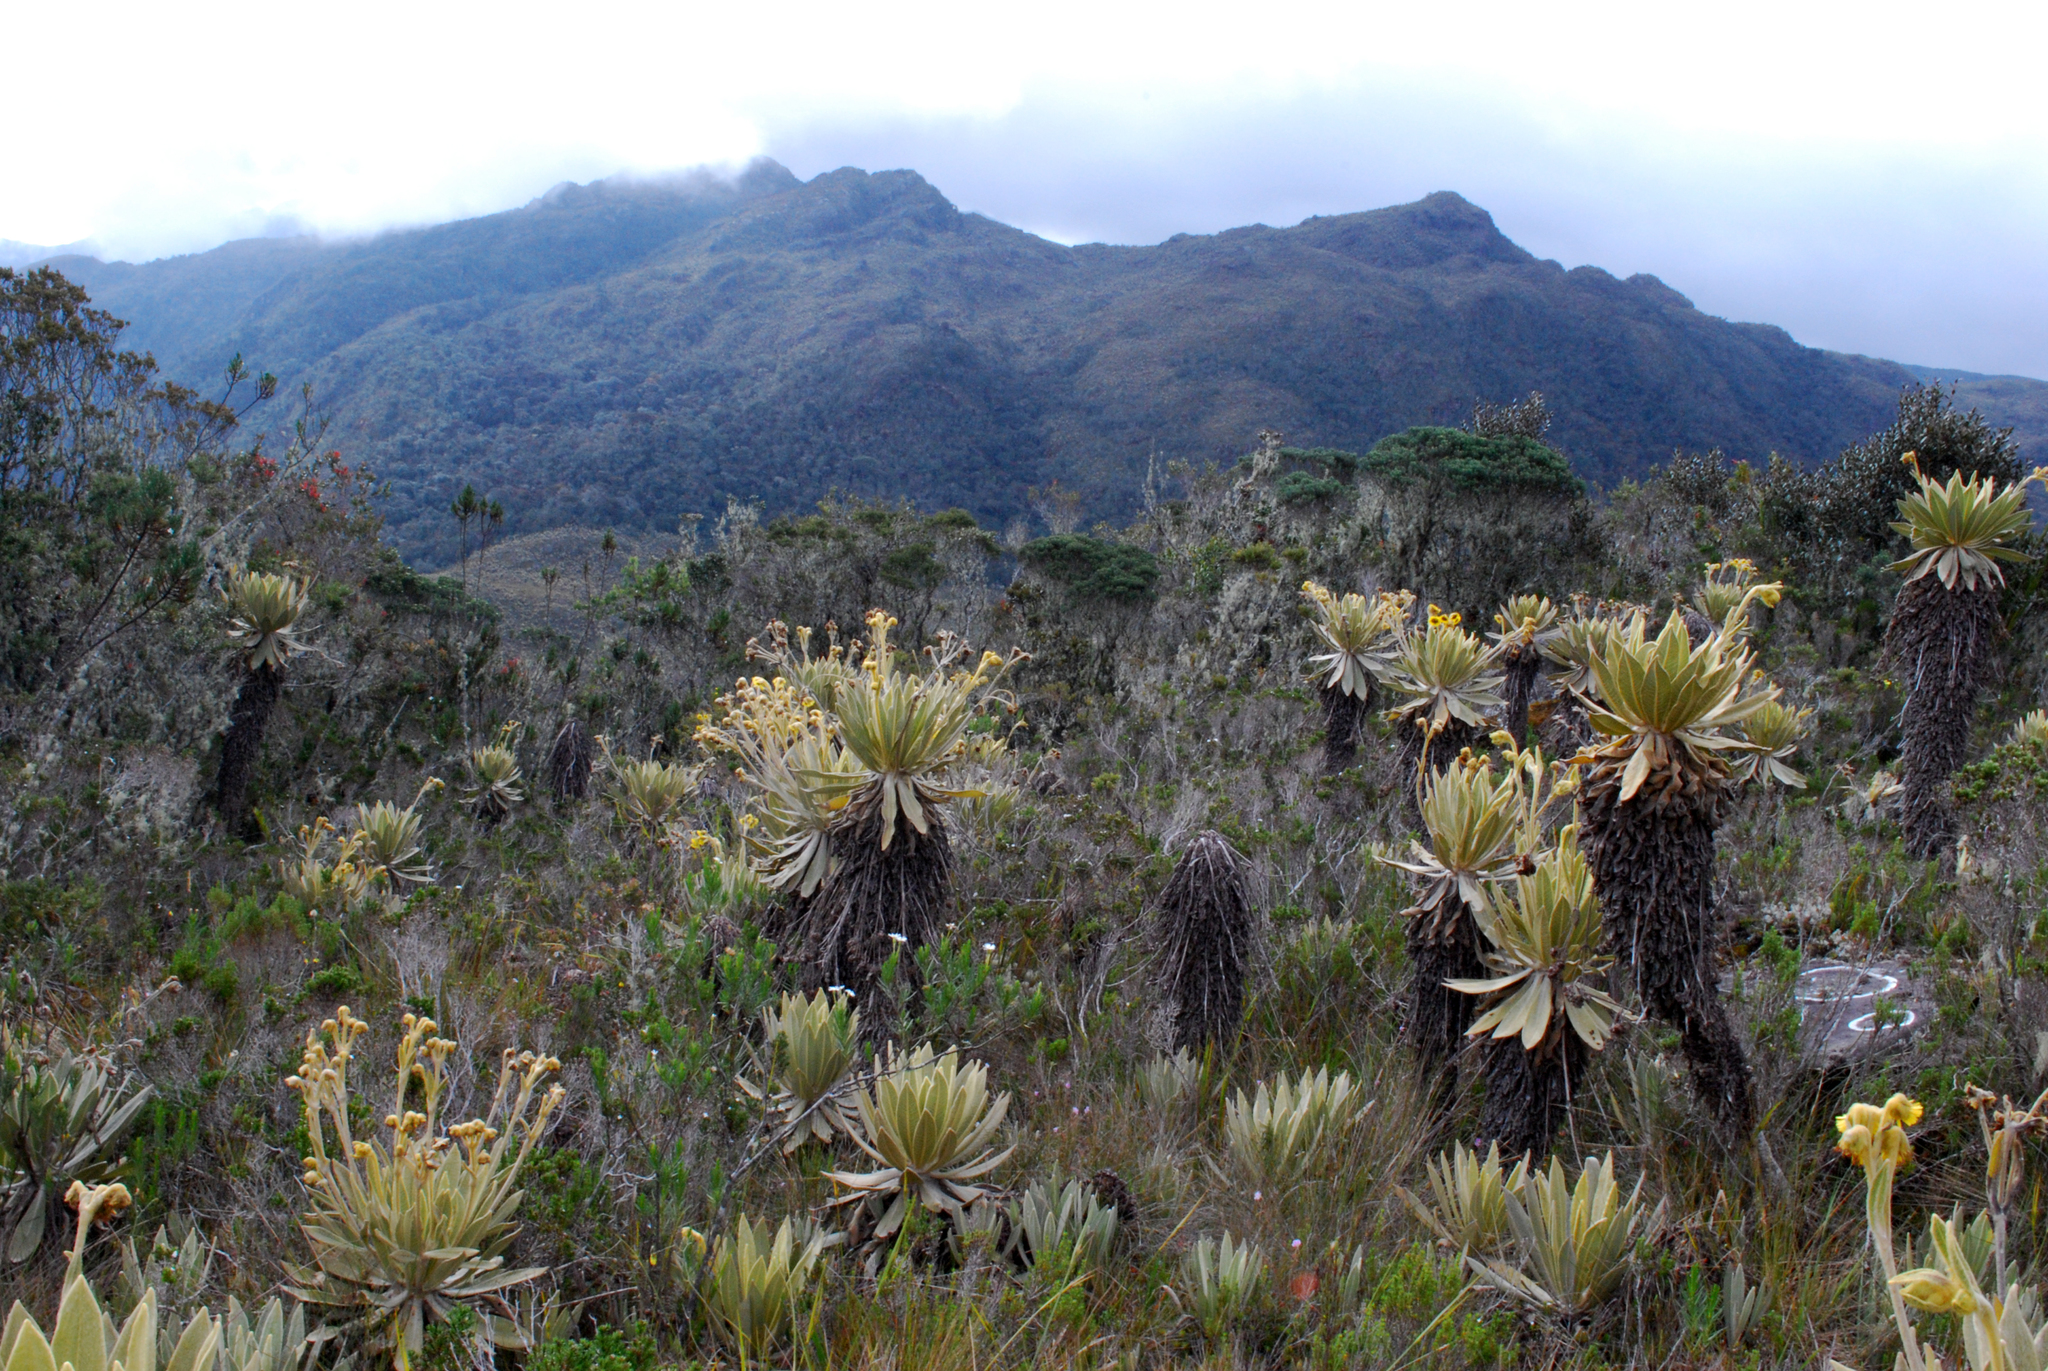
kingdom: Plantae
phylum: Tracheophyta
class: Magnoliopsida
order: Asterales
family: Asteraceae
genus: Espeletia
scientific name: Espeletia frontinoensis
